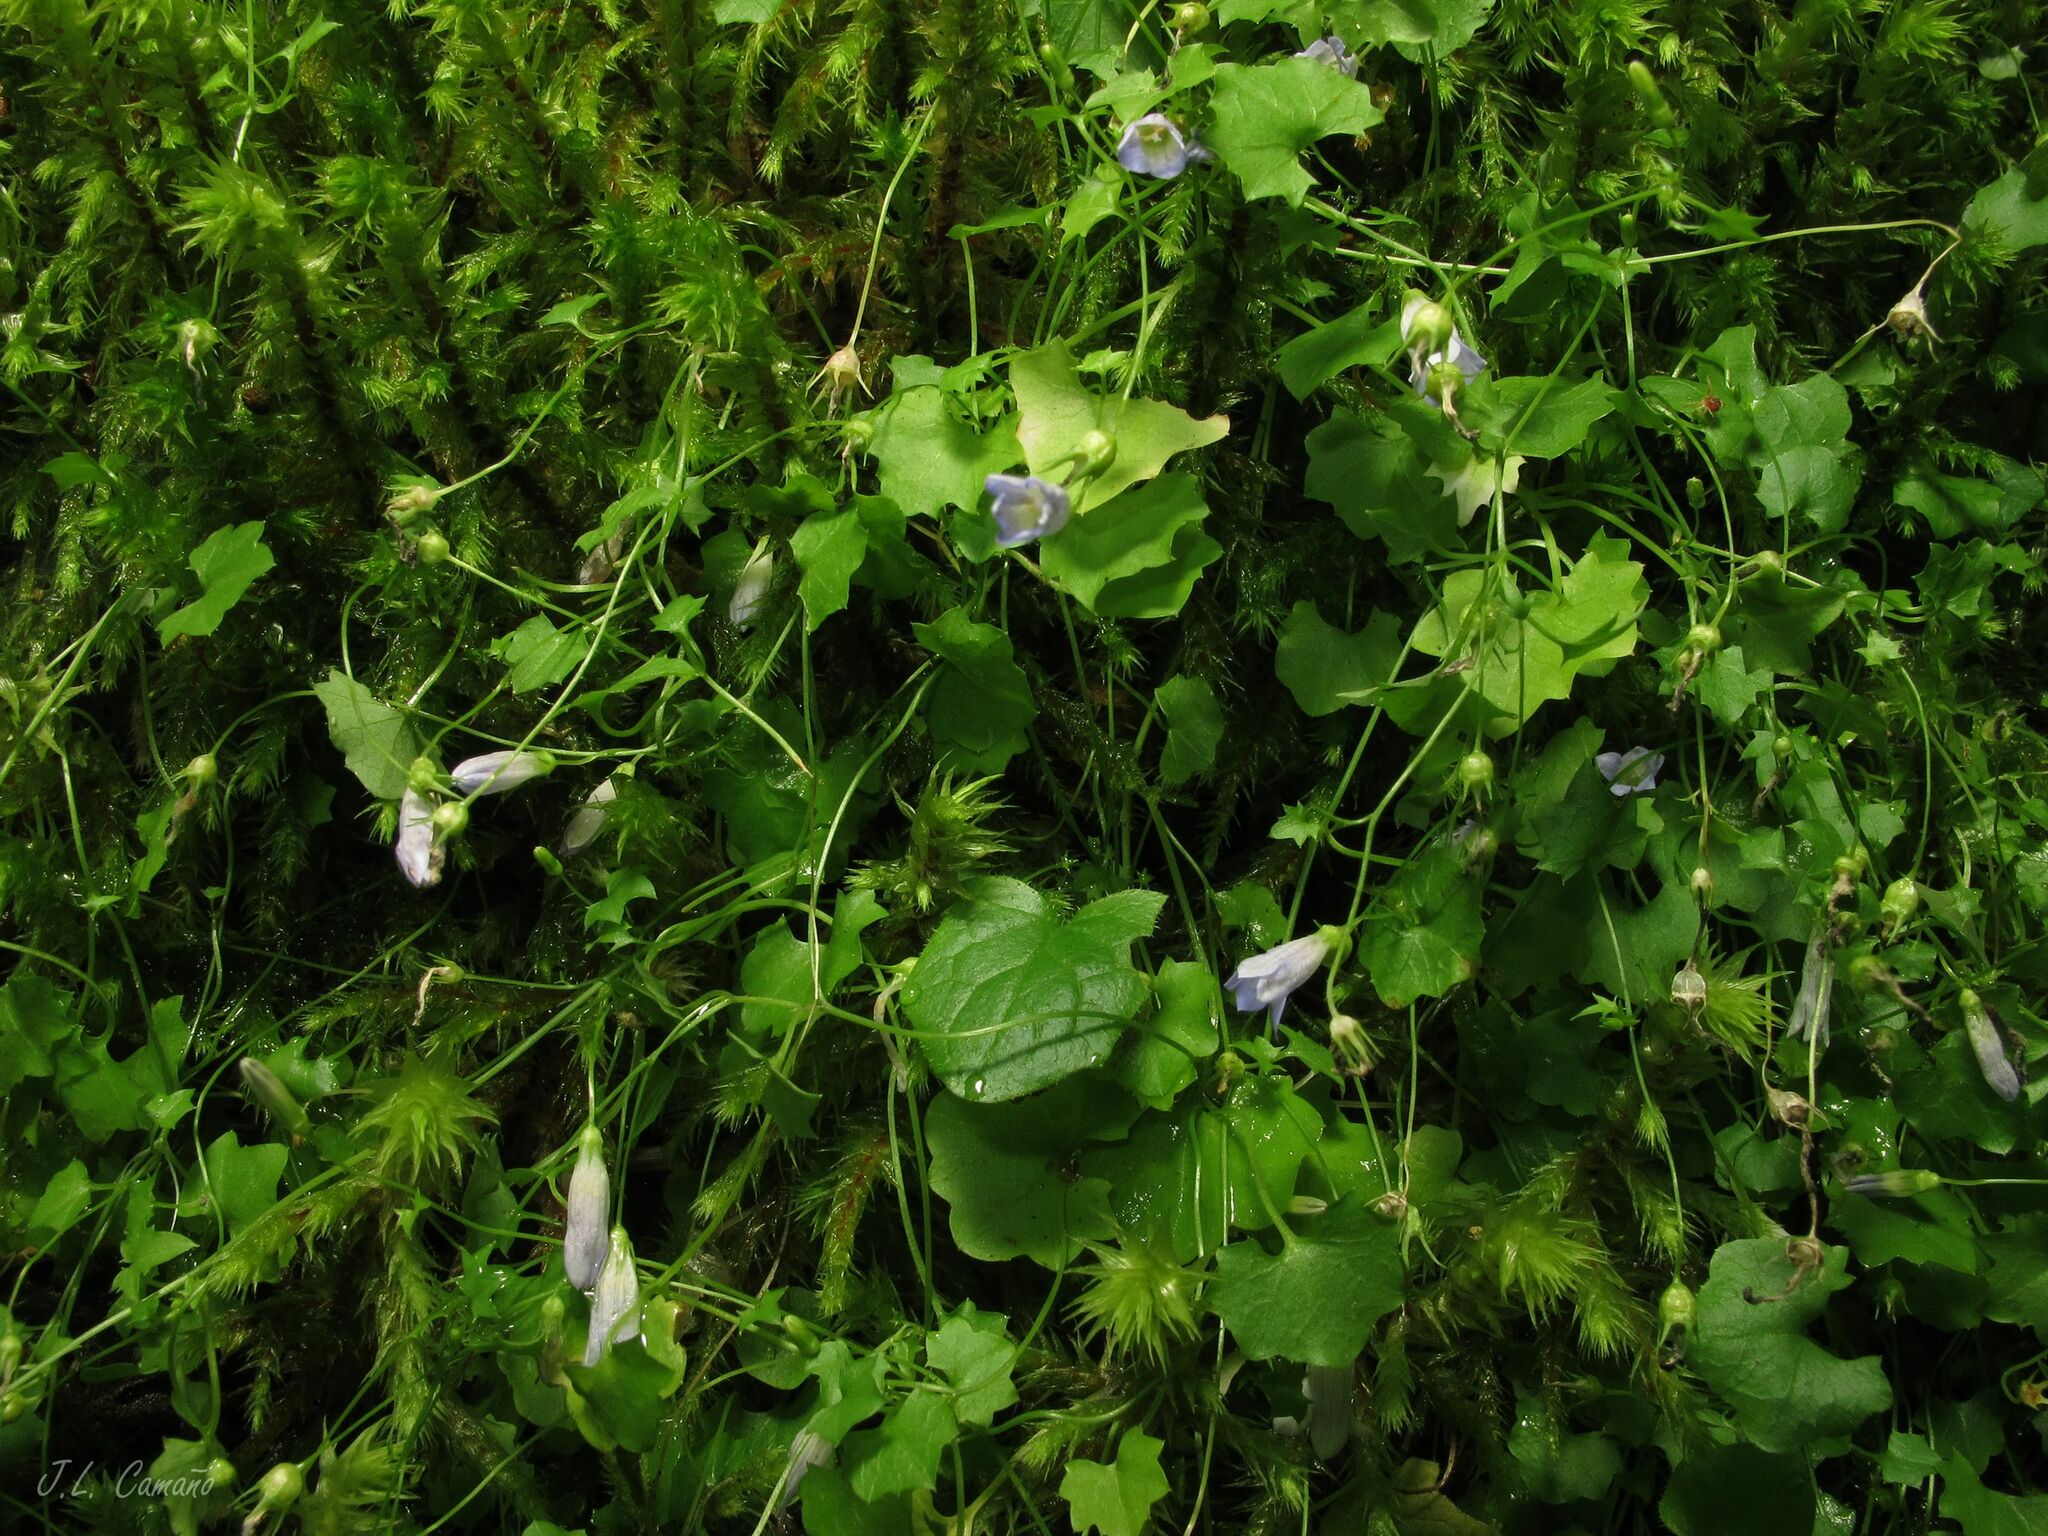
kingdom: Plantae
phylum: Tracheophyta
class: Magnoliopsida
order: Asterales
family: Campanulaceae
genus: Hesperocodon
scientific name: Hesperocodon hederaceus
